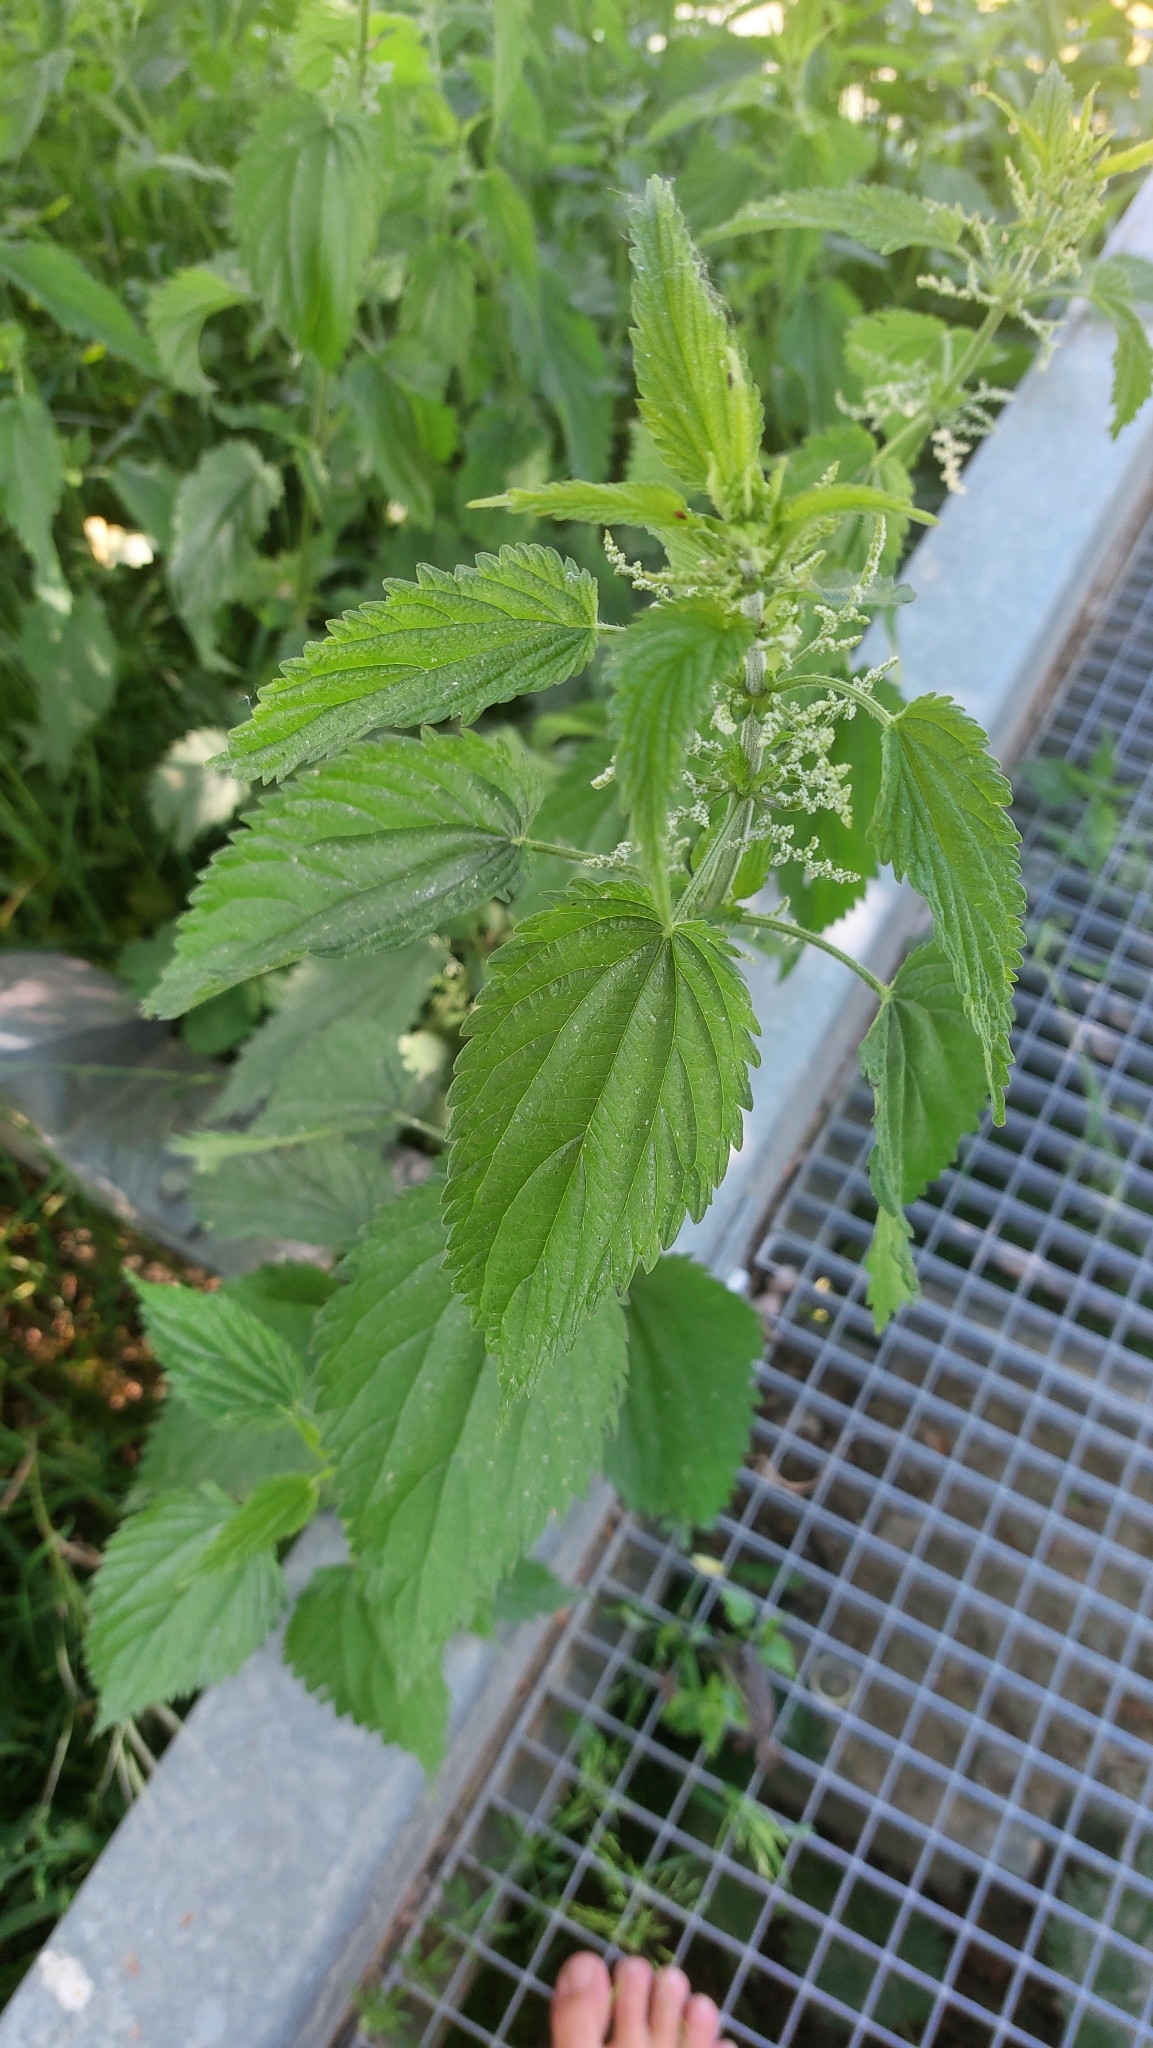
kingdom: Plantae
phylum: Tracheophyta
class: Magnoliopsida
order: Rosales
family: Urticaceae
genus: Urtica
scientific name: Urtica dioica
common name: Common nettle
